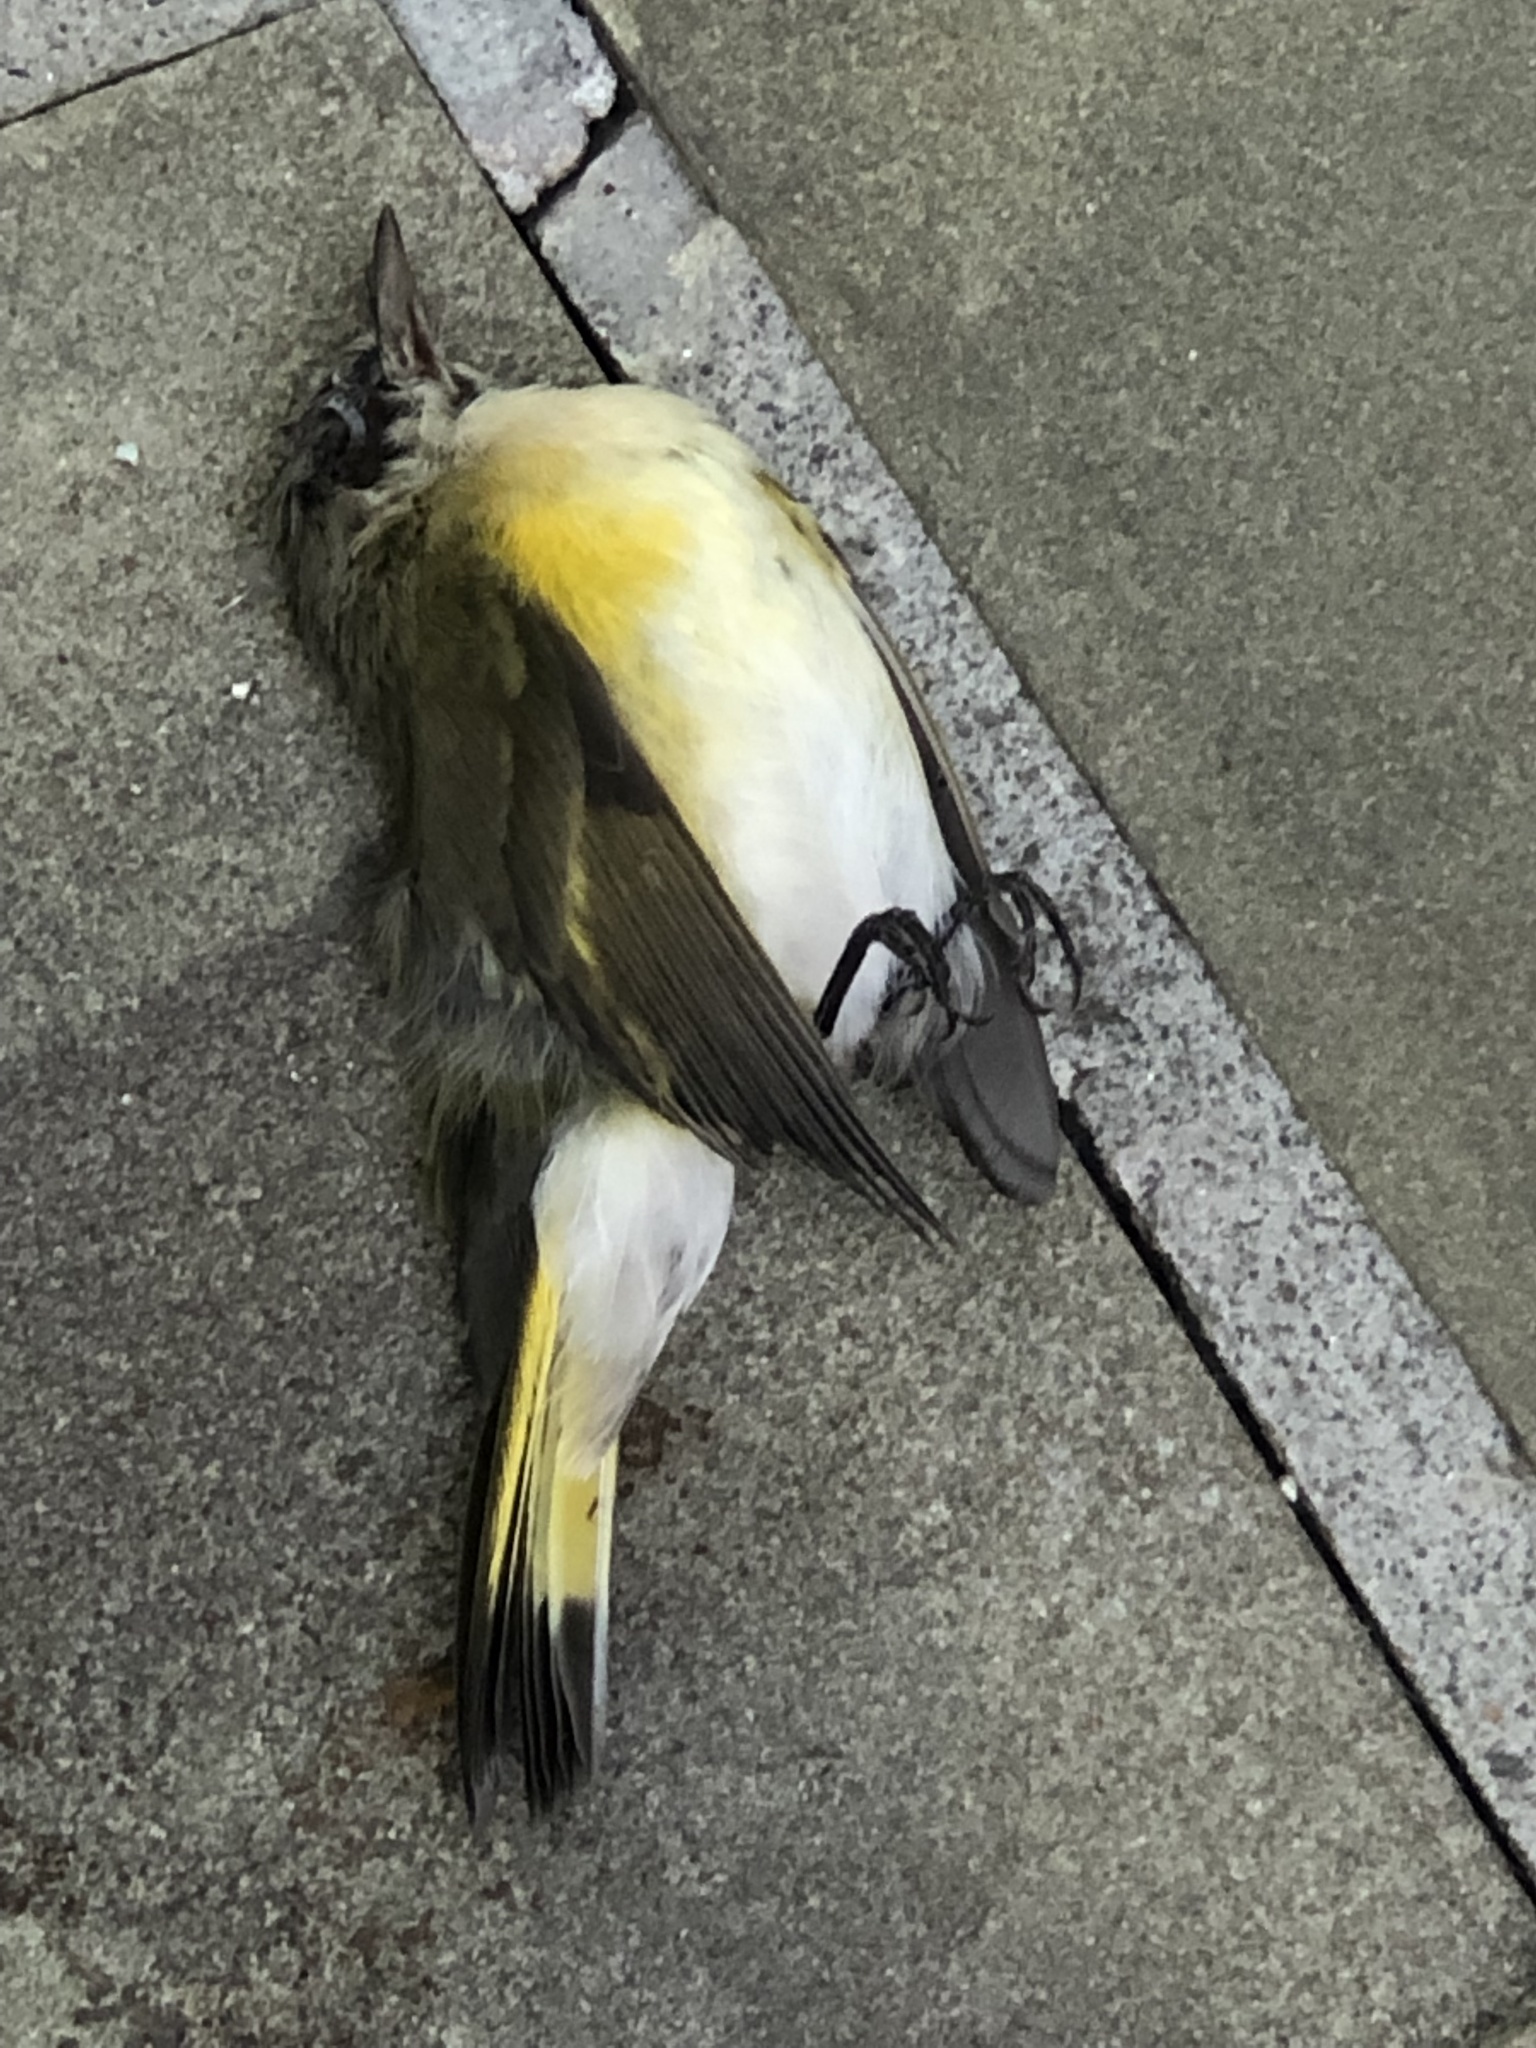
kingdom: Animalia
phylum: Chordata
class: Aves
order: Passeriformes
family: Parulidae
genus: Setophaga
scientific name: Setophaga ruticilla
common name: American redstart
